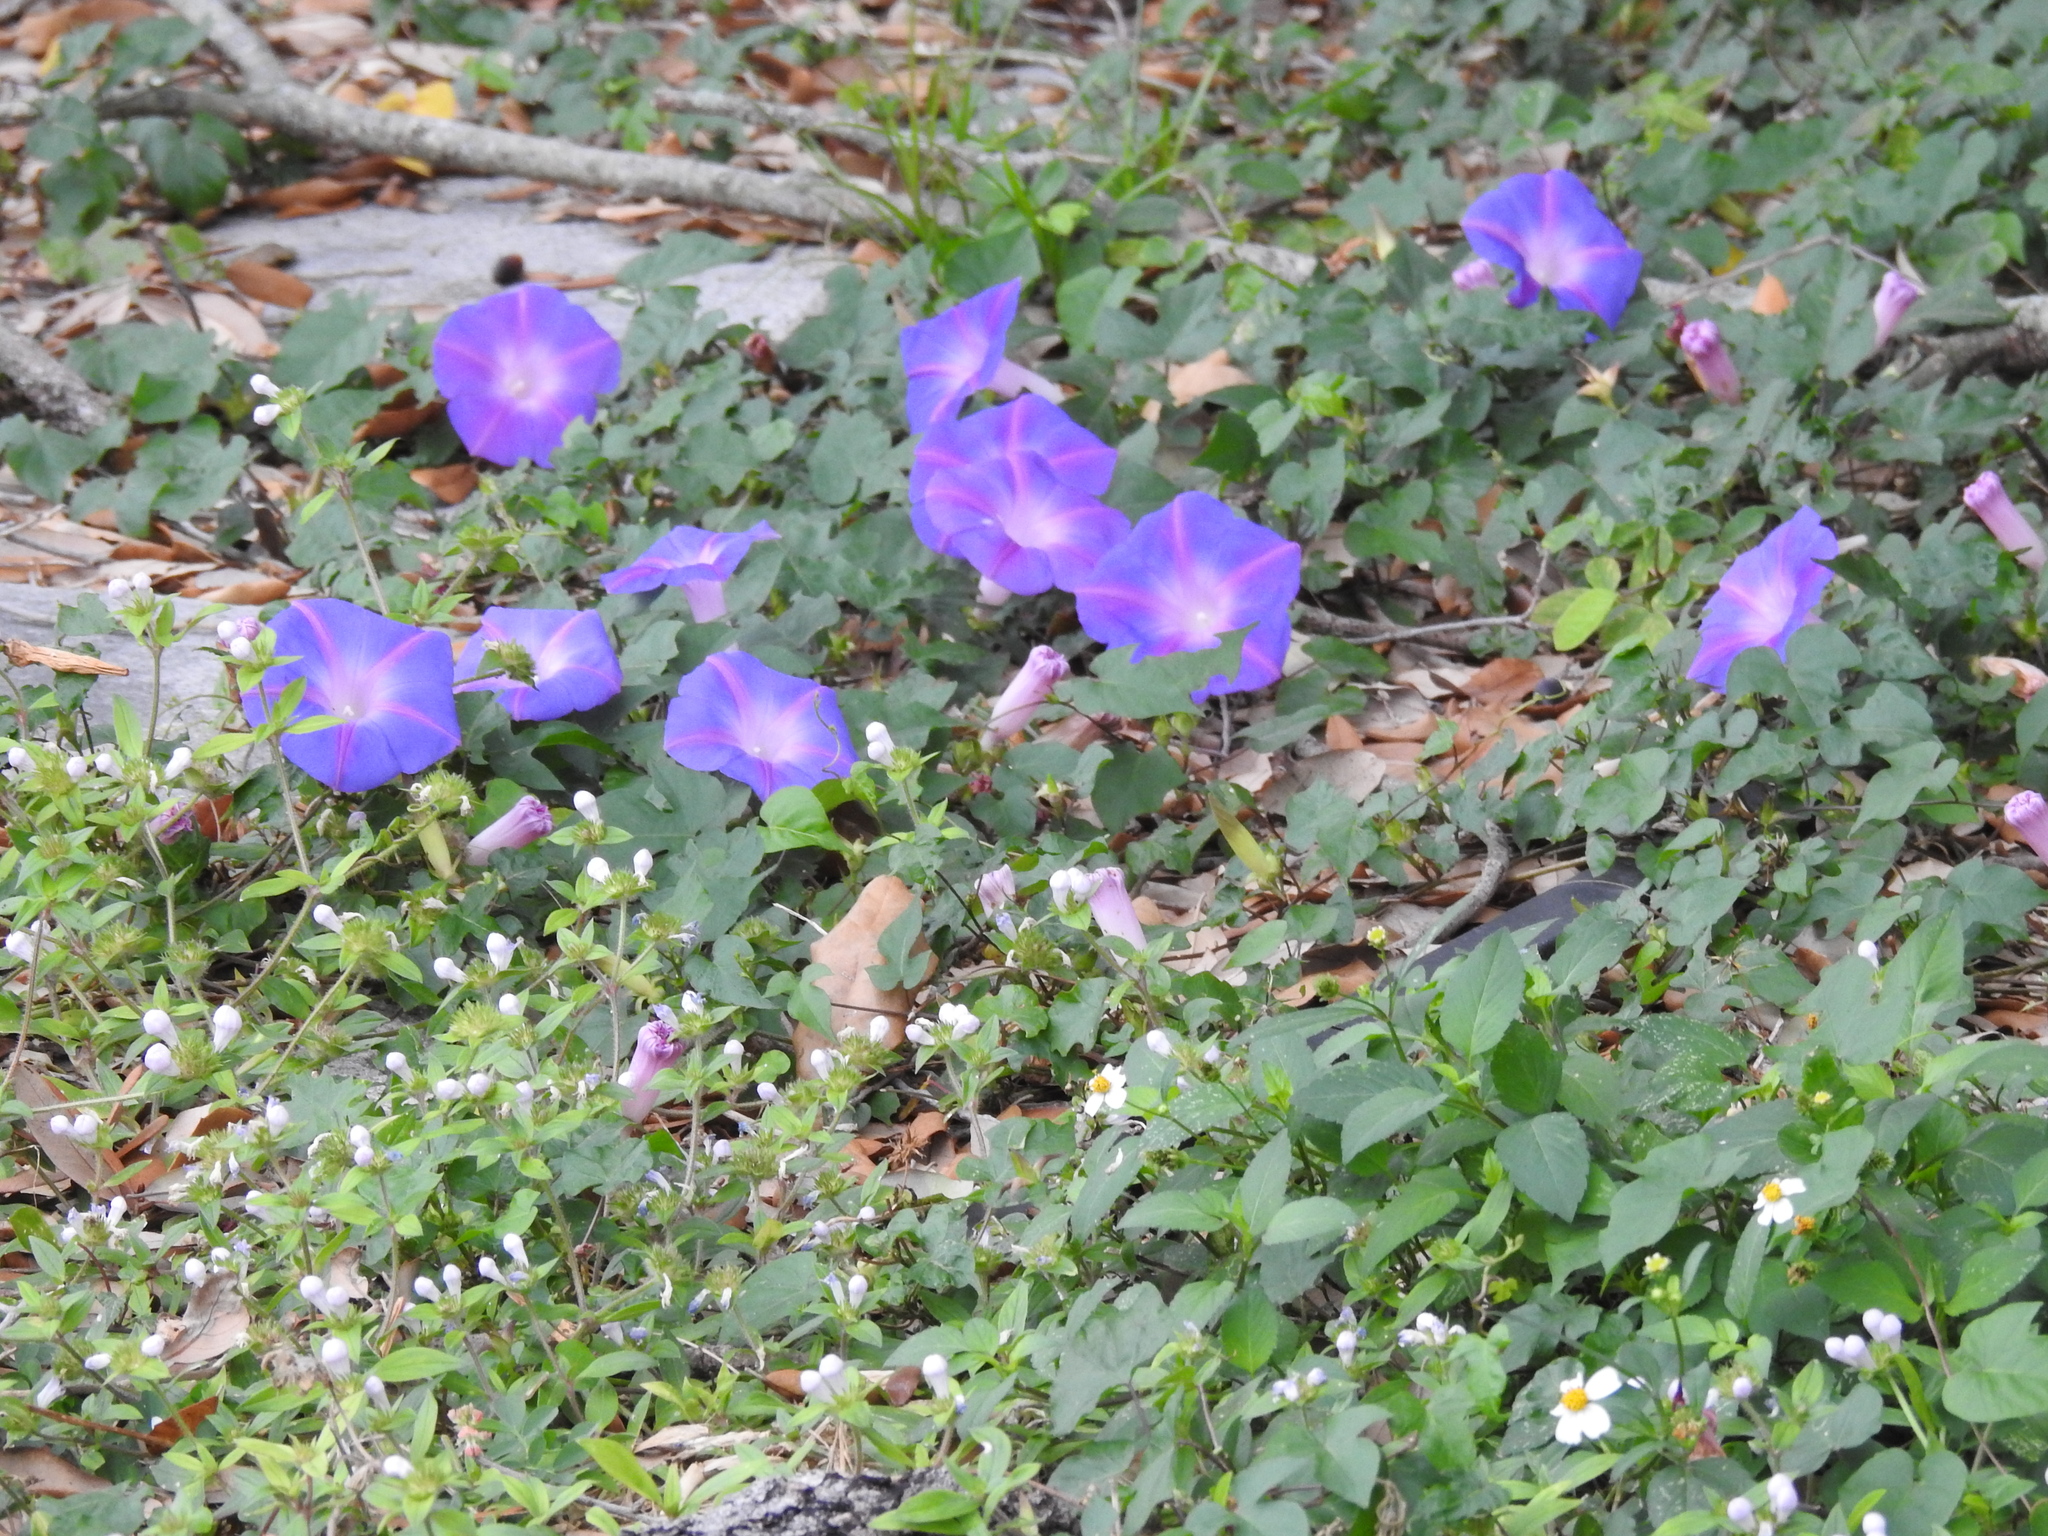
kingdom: Plantae
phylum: Tracheophyta
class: Magnoliopsida
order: Solanales
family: Convolvulaceae
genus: Ipomoea
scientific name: Ipomoea indica
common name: Blue dawnflower
